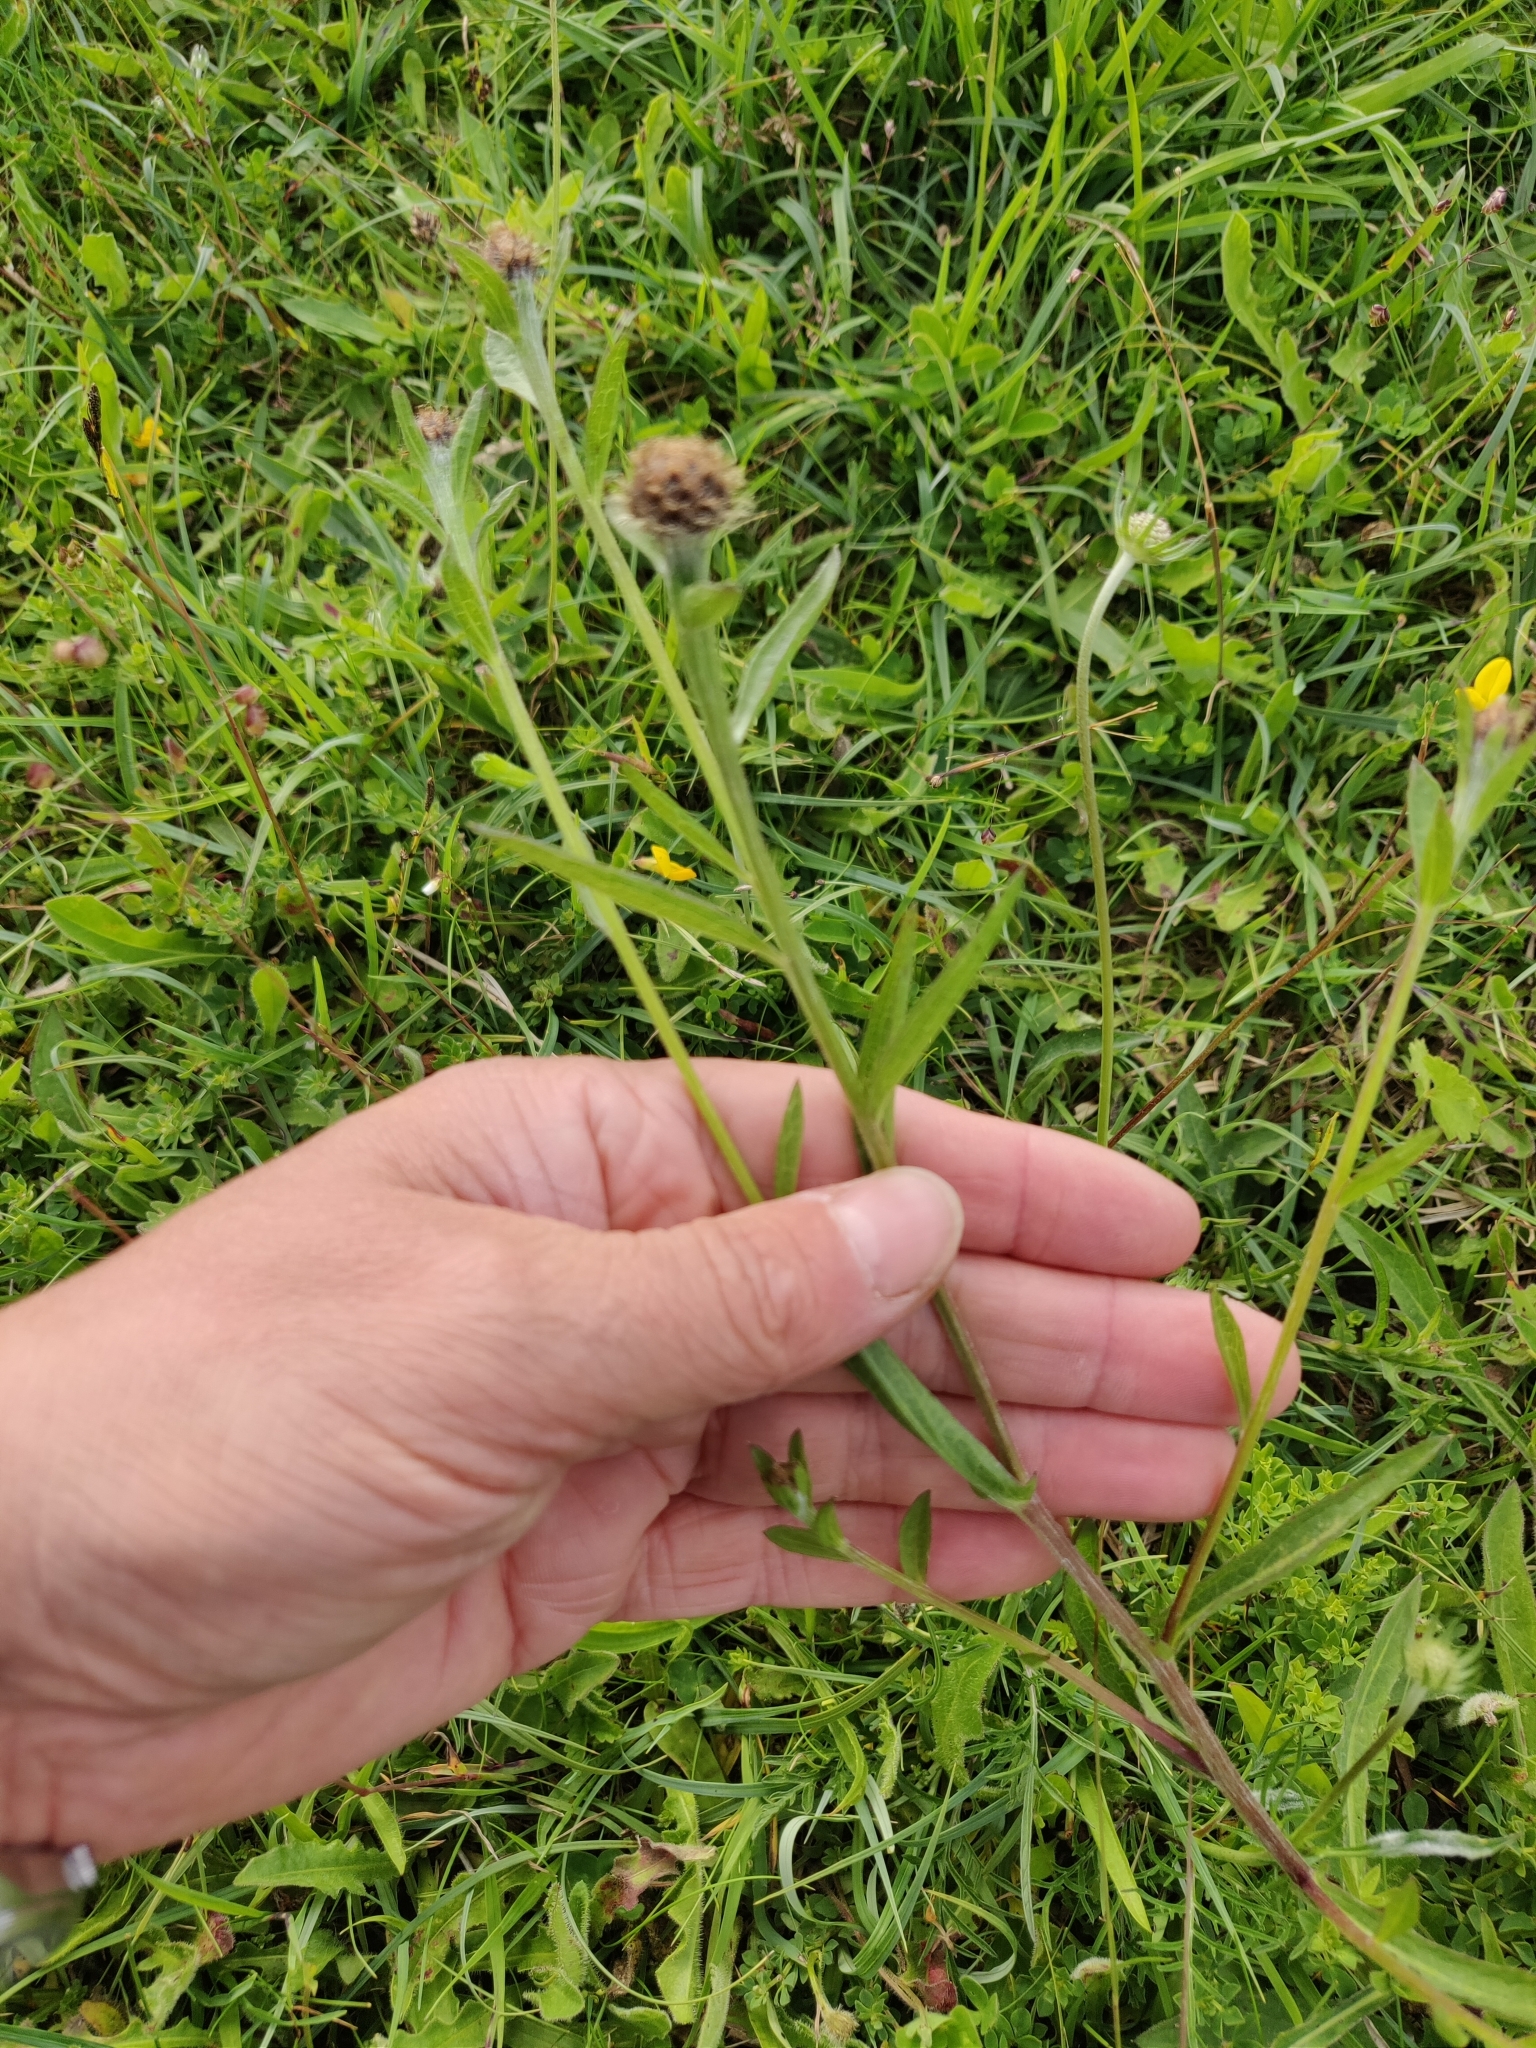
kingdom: Plantae
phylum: Tracheophyta
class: Magnoliopsida
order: Asterales
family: Asteraceae
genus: Centaurea
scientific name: Centaurea nigra
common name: Lesser knapweed
